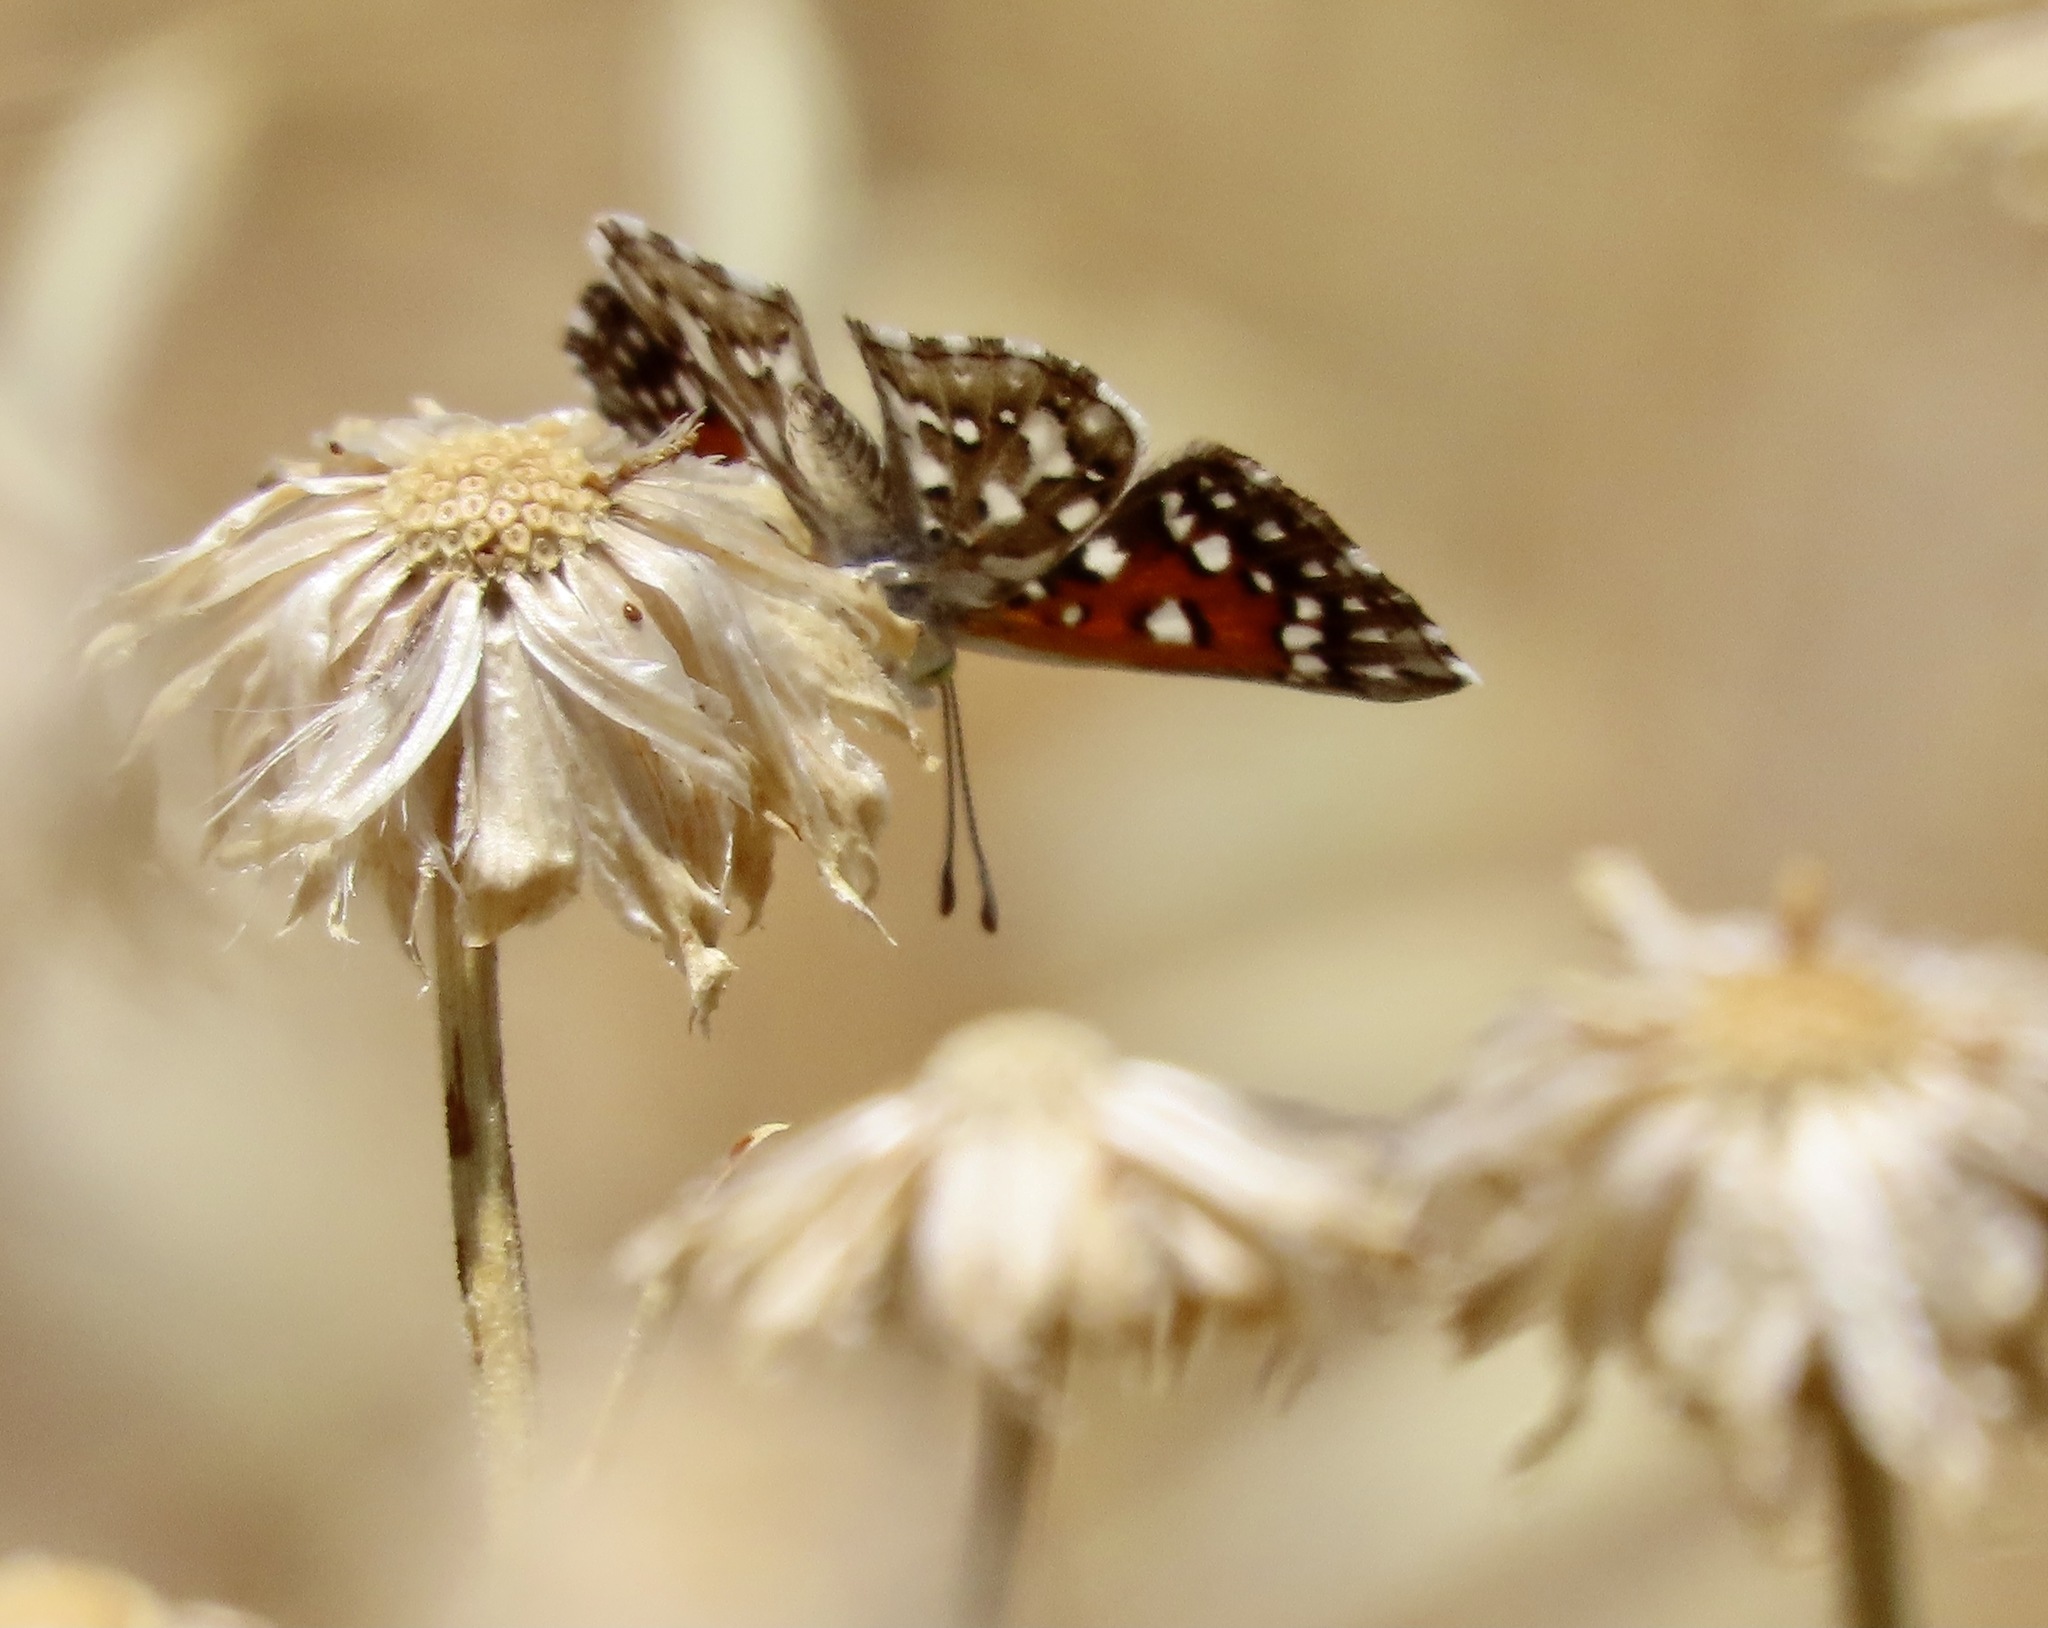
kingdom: Animalia
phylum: Arthropoda
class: Insecta
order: Lepidoptera
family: Riodinidae
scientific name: Riodinidae
